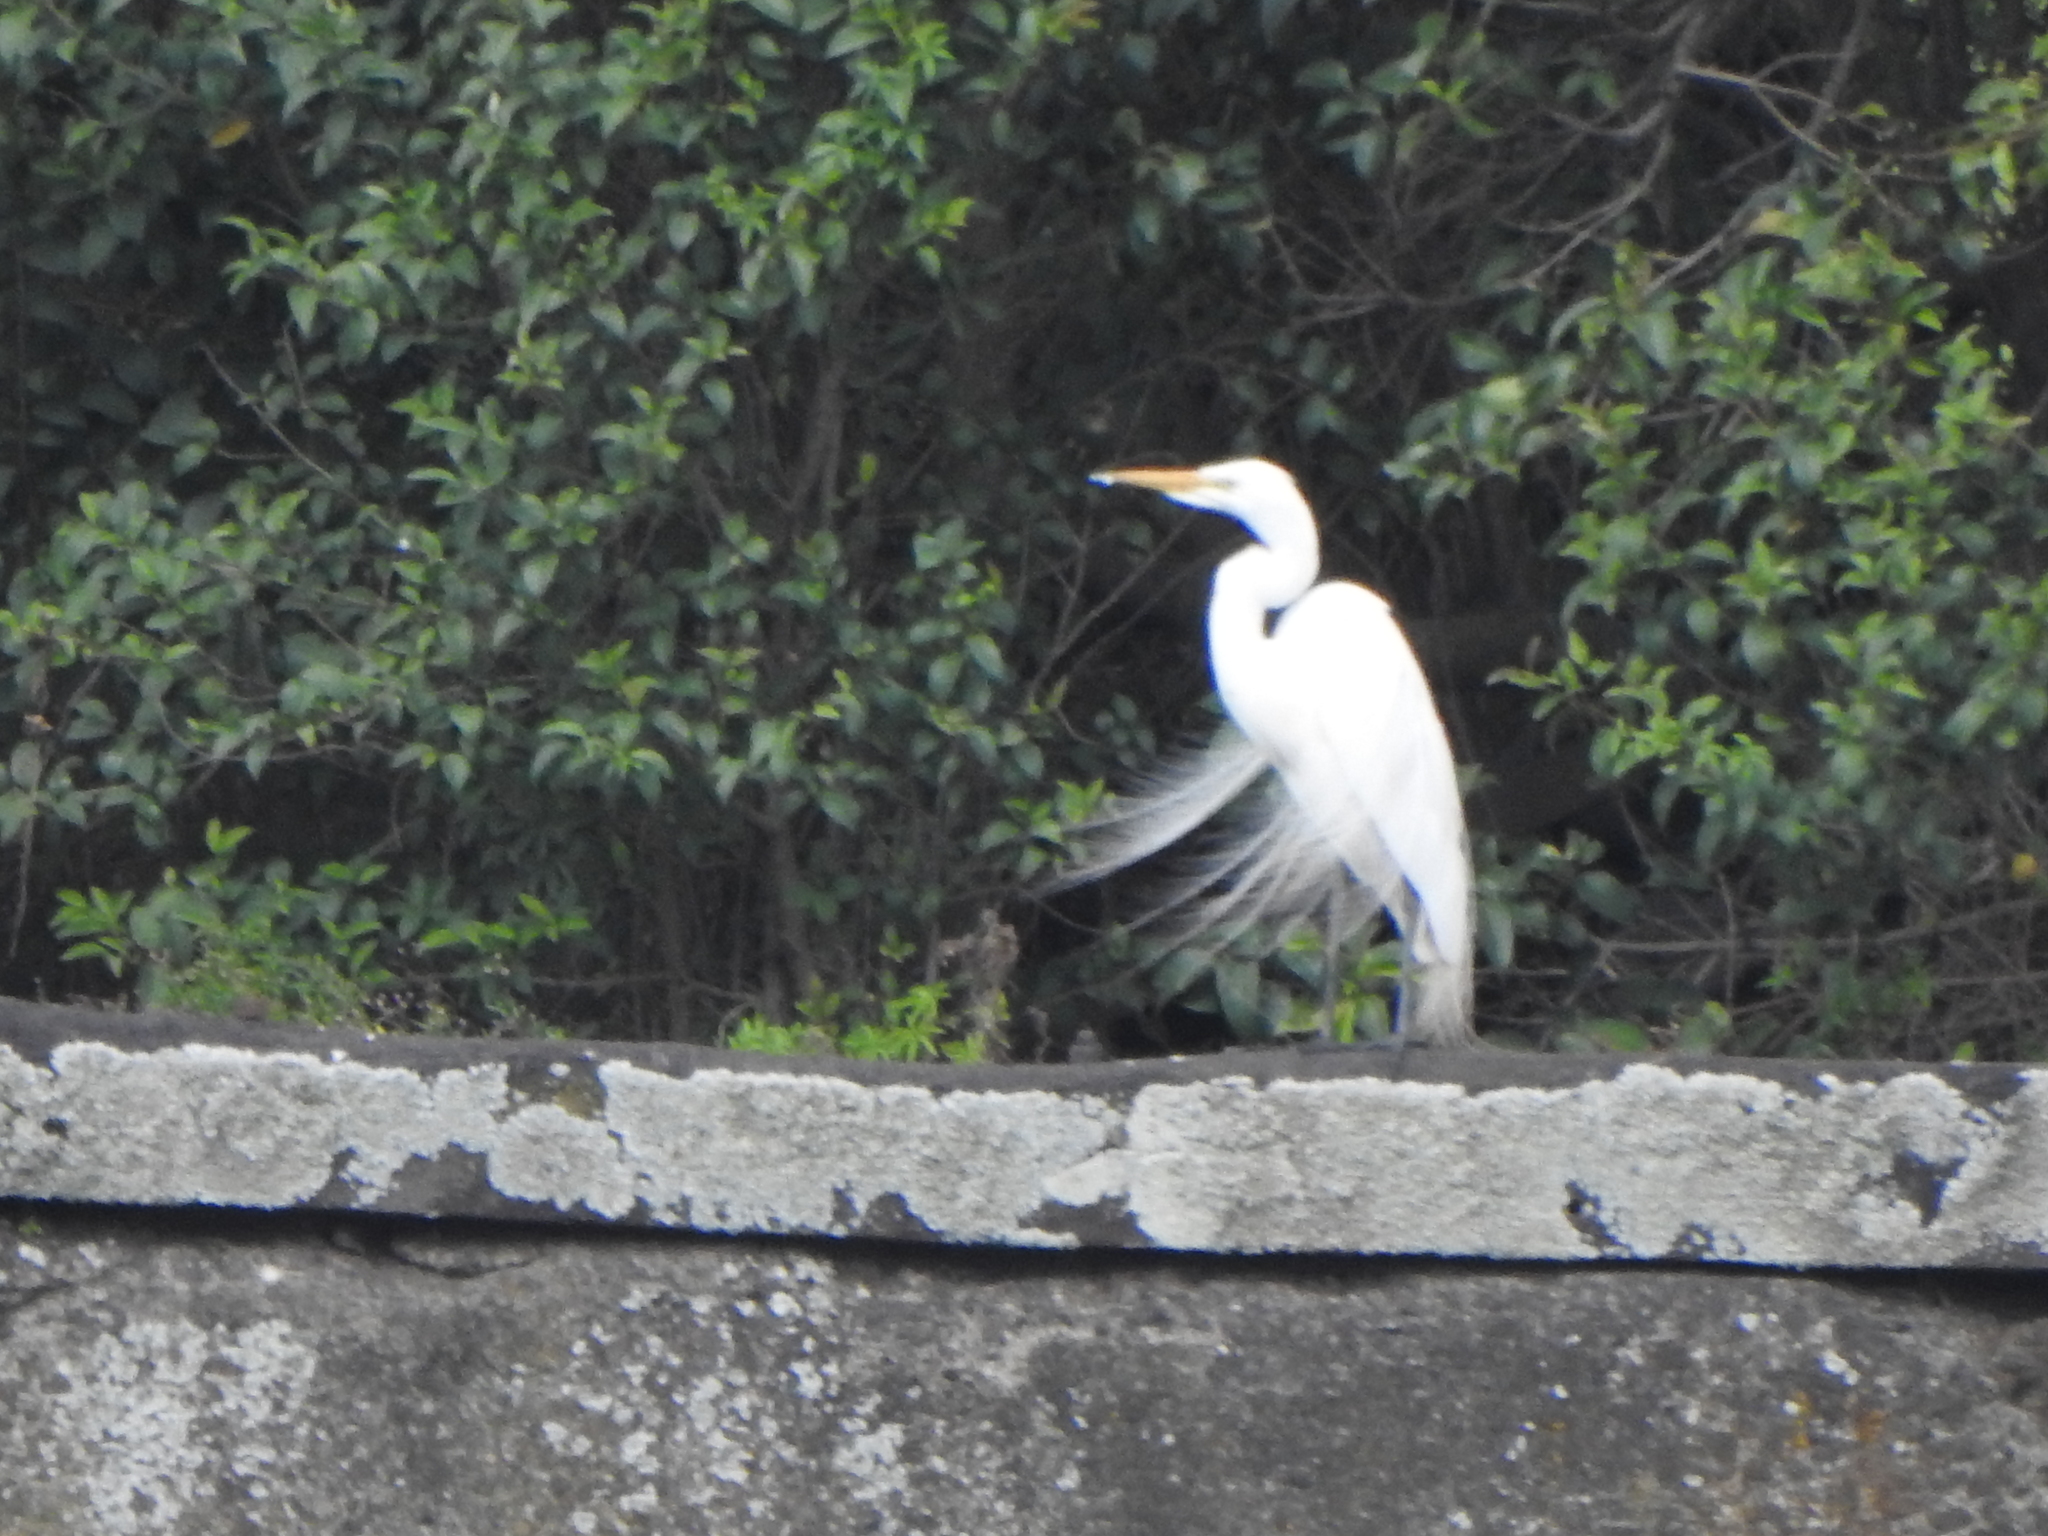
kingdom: Animalia
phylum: Chordata
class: Aves
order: Pelecaniformes
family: Ardeidae
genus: Ardea
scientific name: Ardea alba
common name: Great egret
